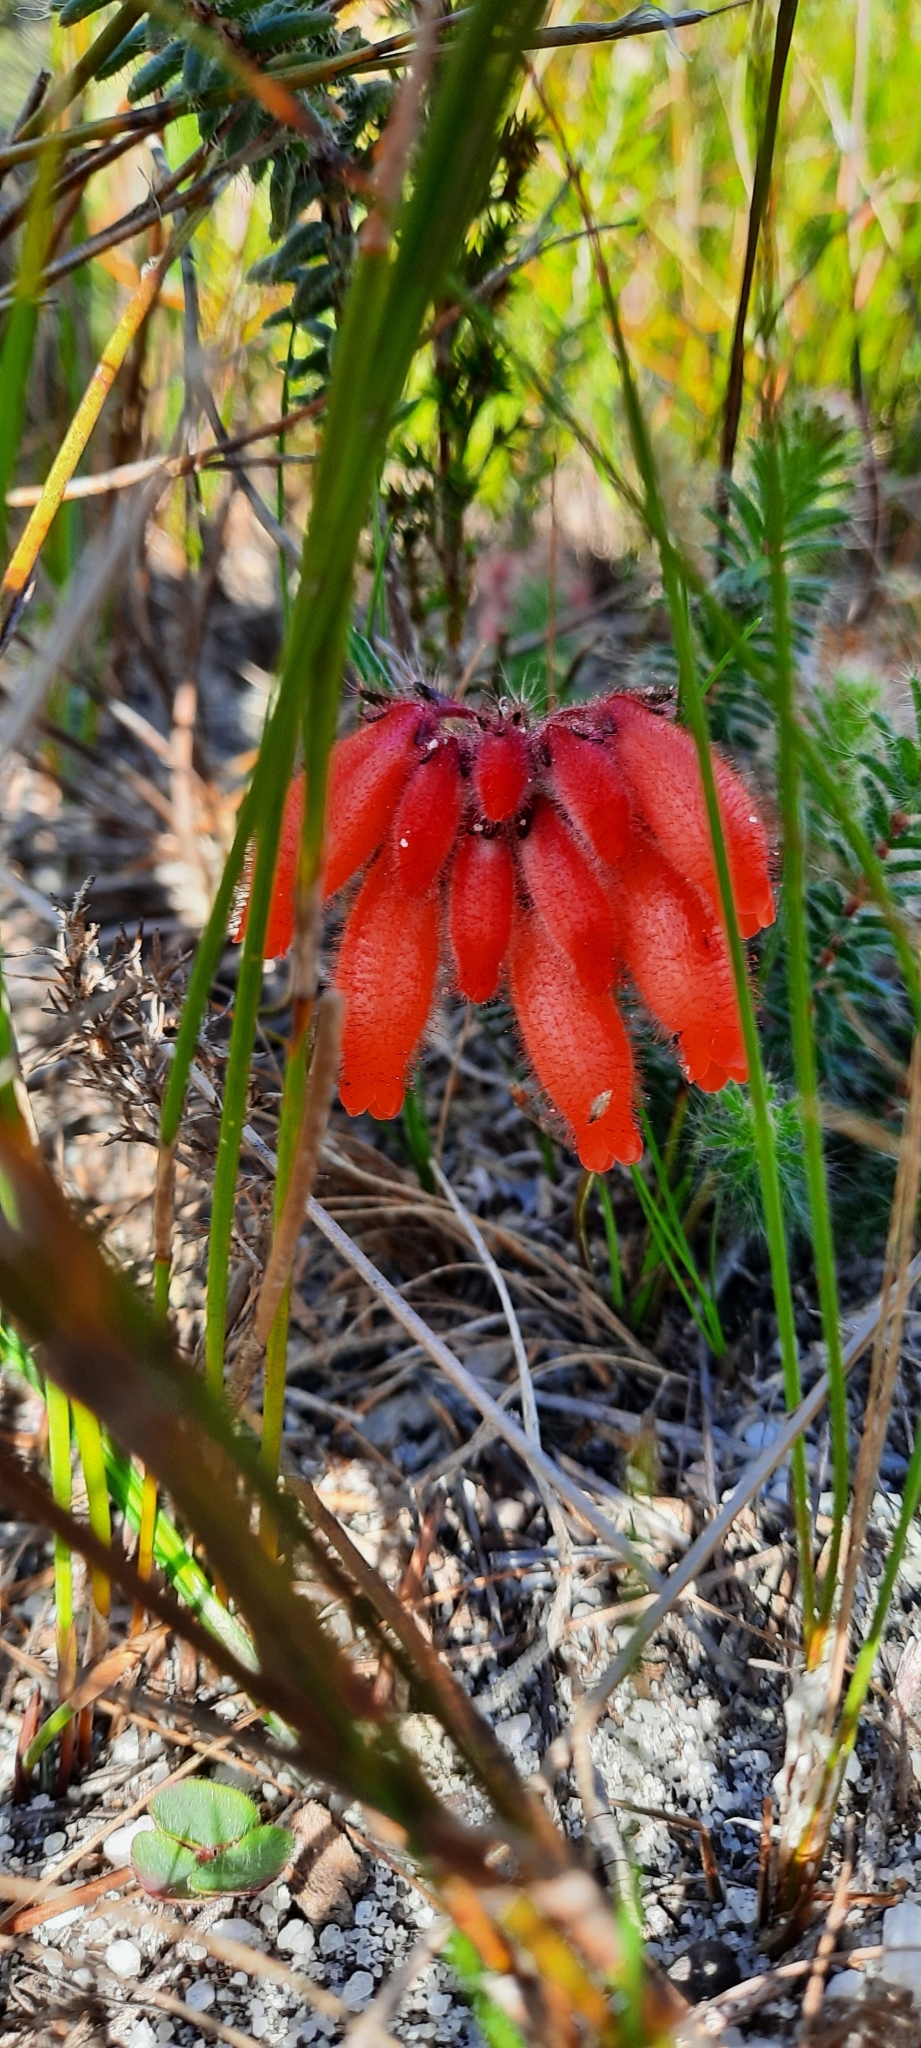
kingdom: Plantae
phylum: Tracheophyta
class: Magnoliopsida
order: Ericales
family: Ericaceae
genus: Erica
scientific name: Erica cerinthoides
